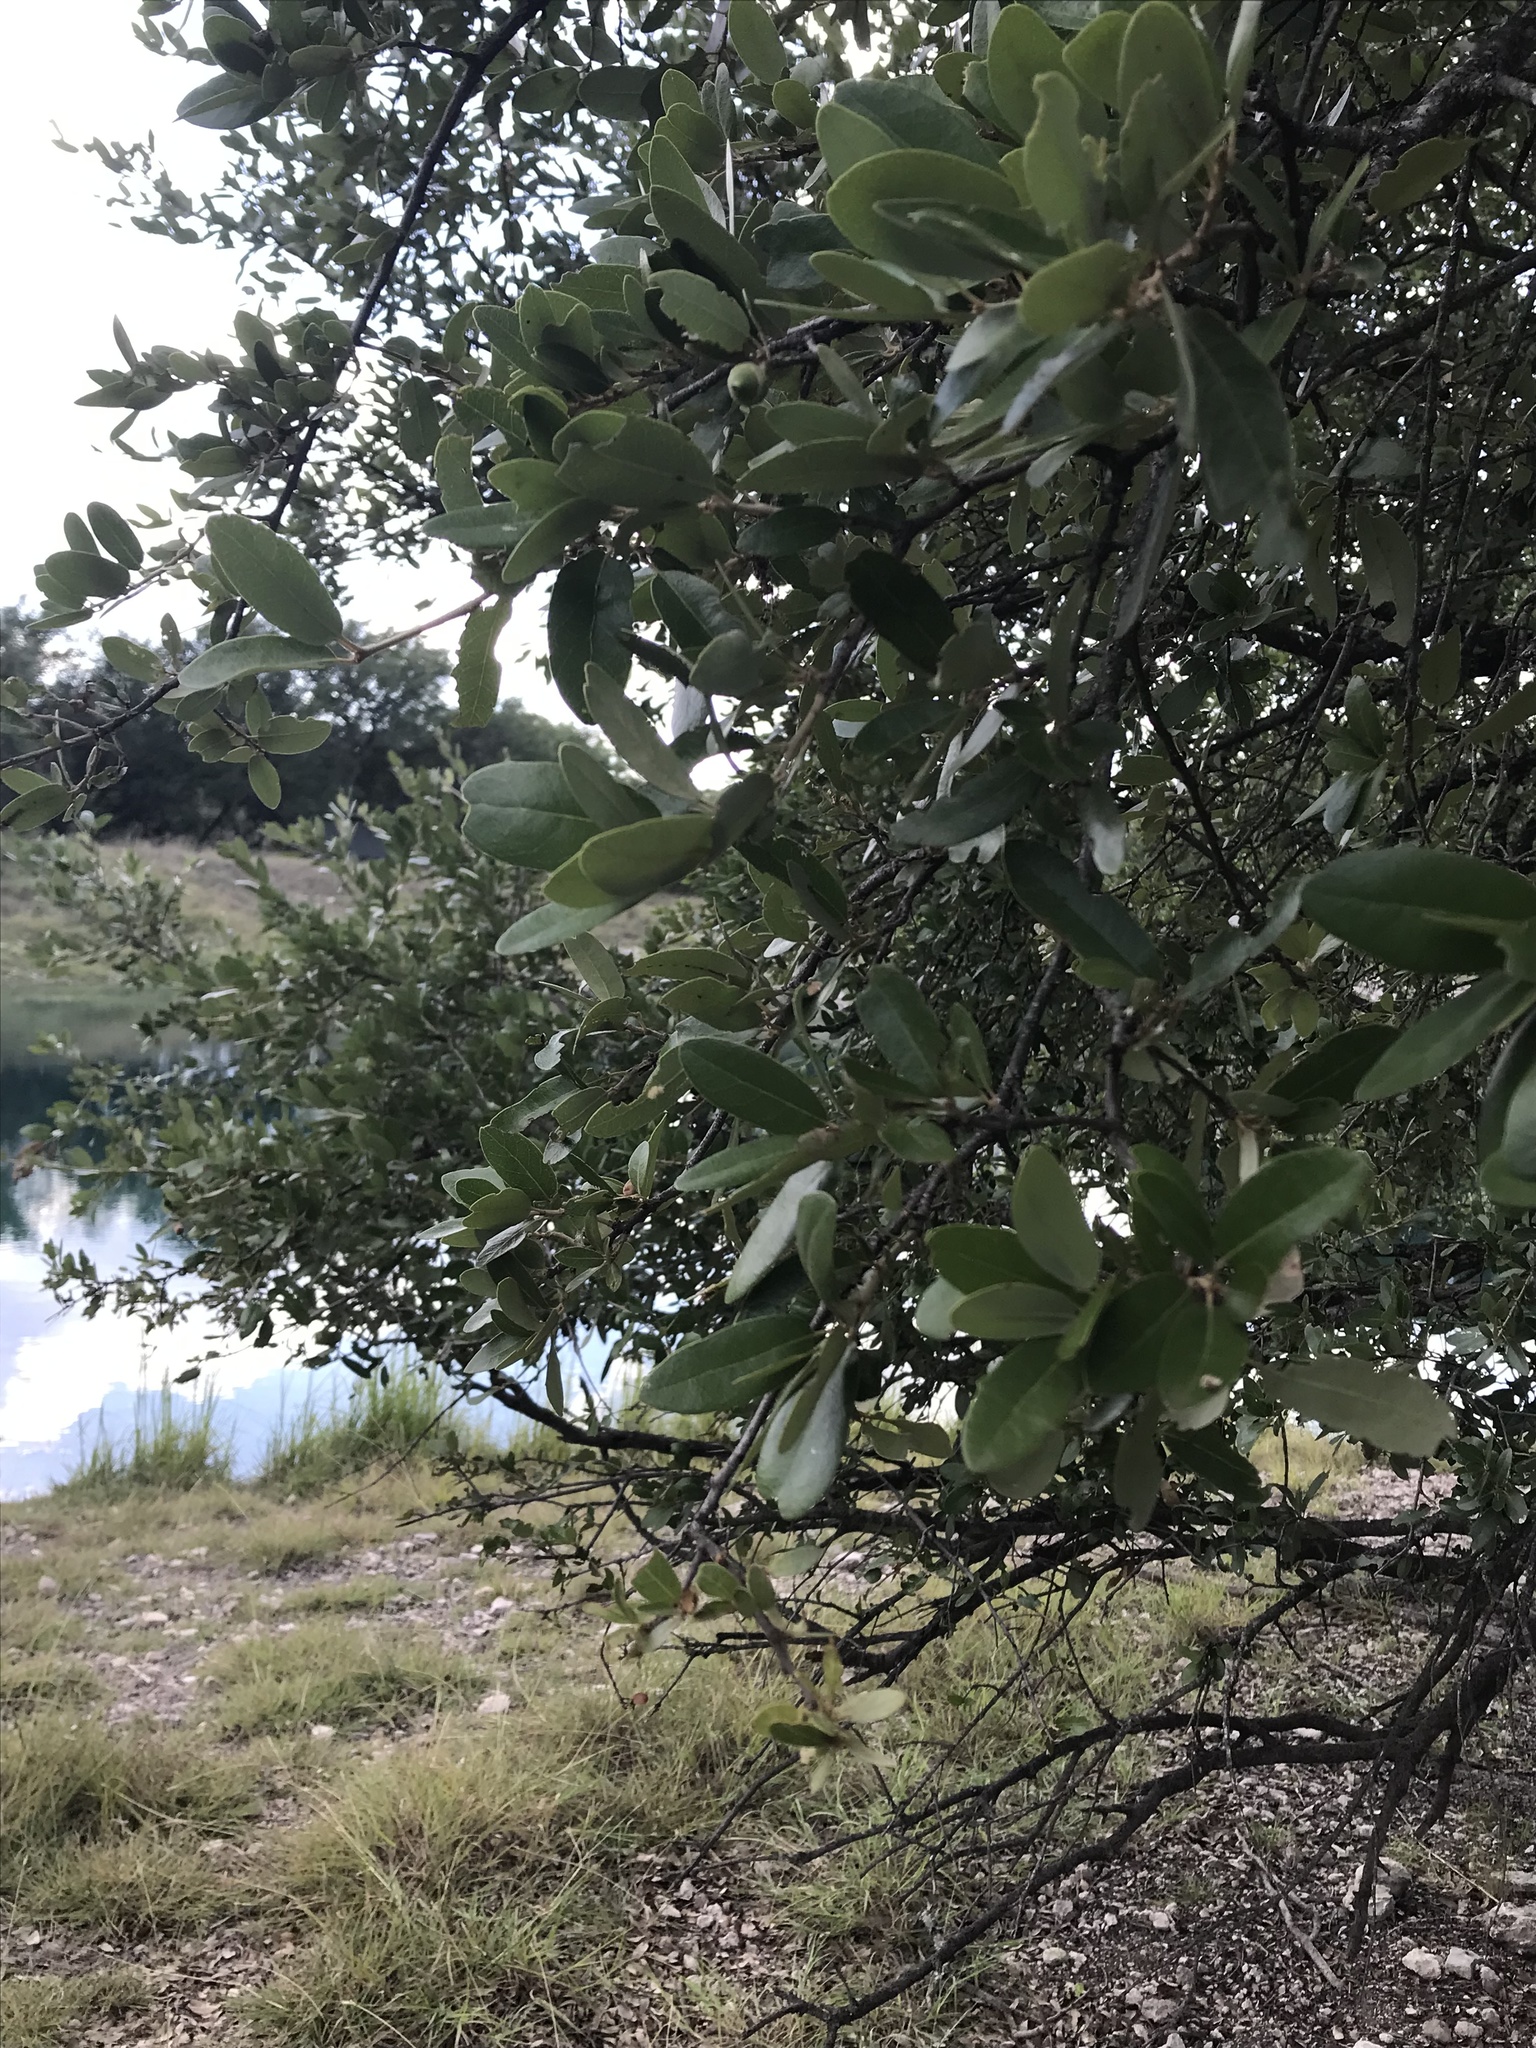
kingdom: Plantae
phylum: Tracheophyta
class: Magnoliopsida
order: Fagales
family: Fagaceae
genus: Quercus
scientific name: Quercus fusiformis
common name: Texas live oak
